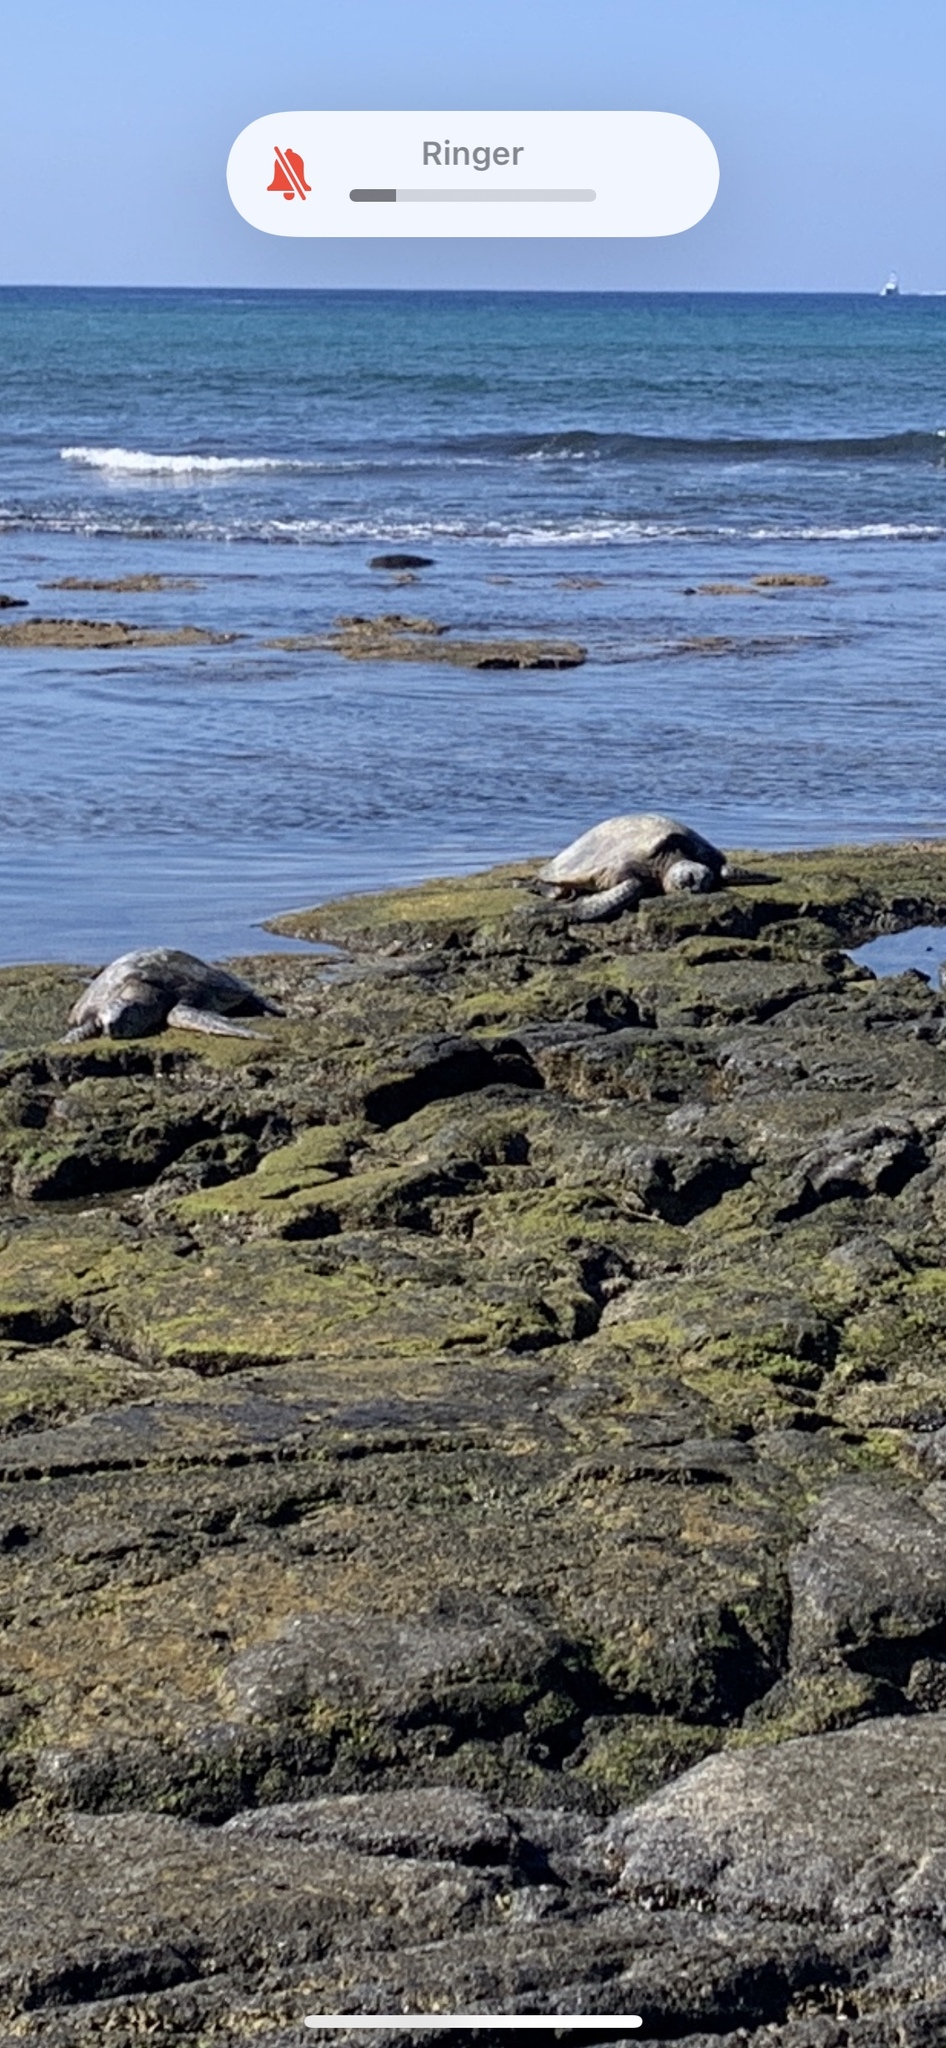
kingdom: Animalia
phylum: Chordata
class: Testudines
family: Cheloniidae
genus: Chelonia
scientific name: Chelonia mydas
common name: Green turtle
